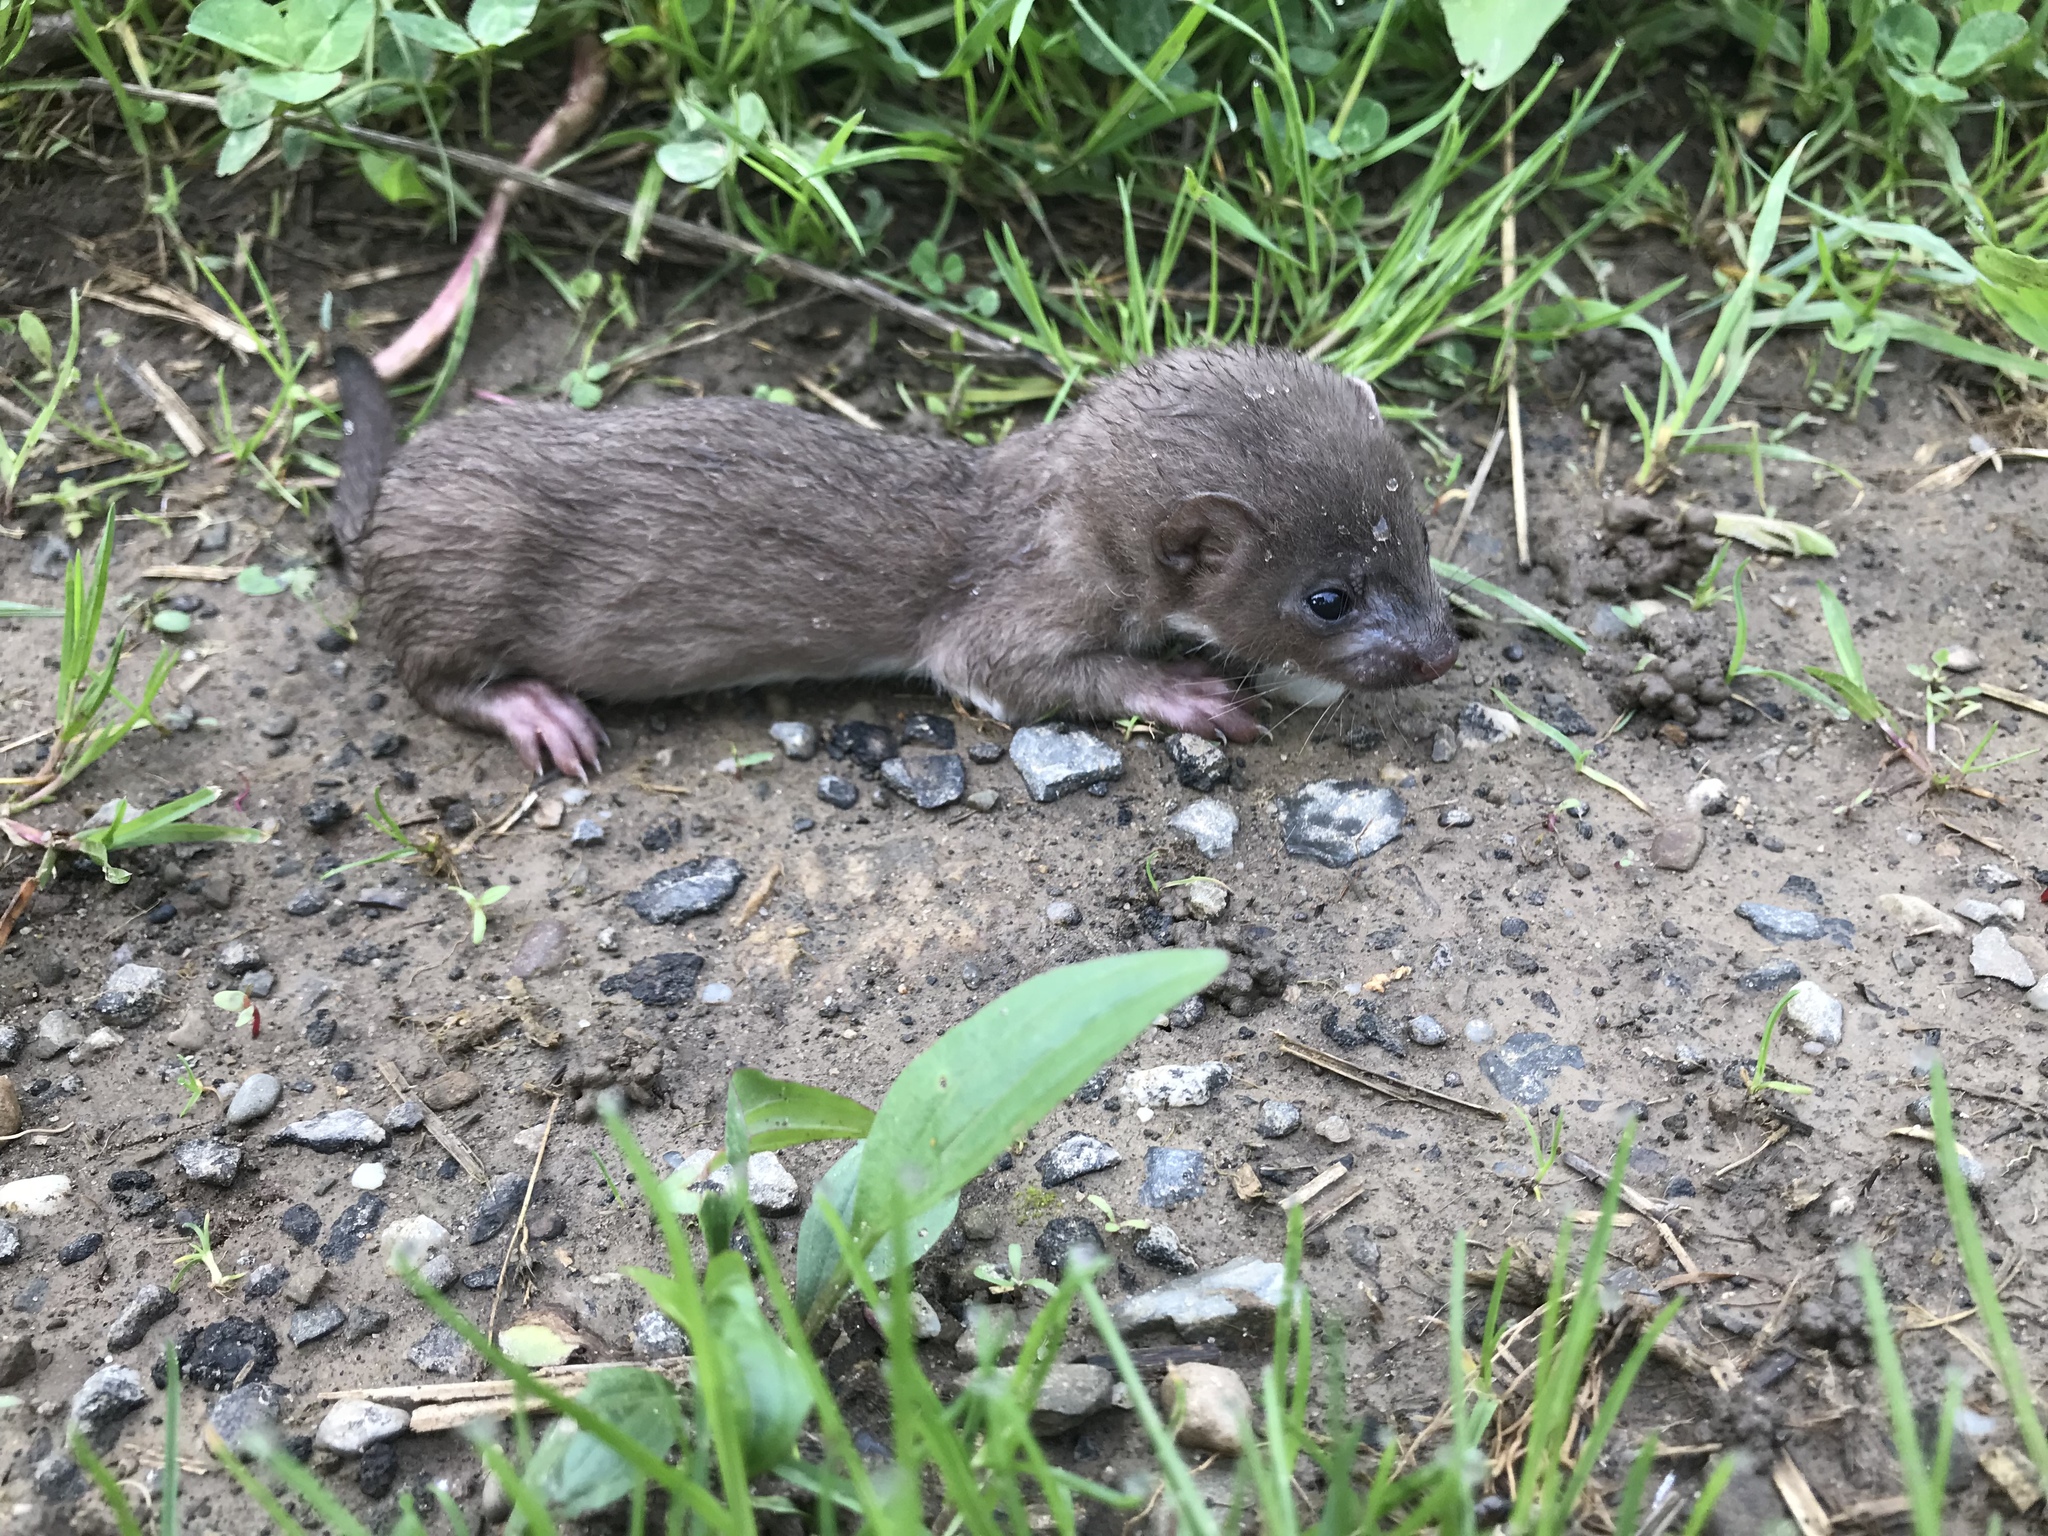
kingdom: Animalia
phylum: Chordata
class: Mammalia
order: Carnivora
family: Mustelidae
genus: Mustela
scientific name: Mustela nivalis
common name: Least weasel
